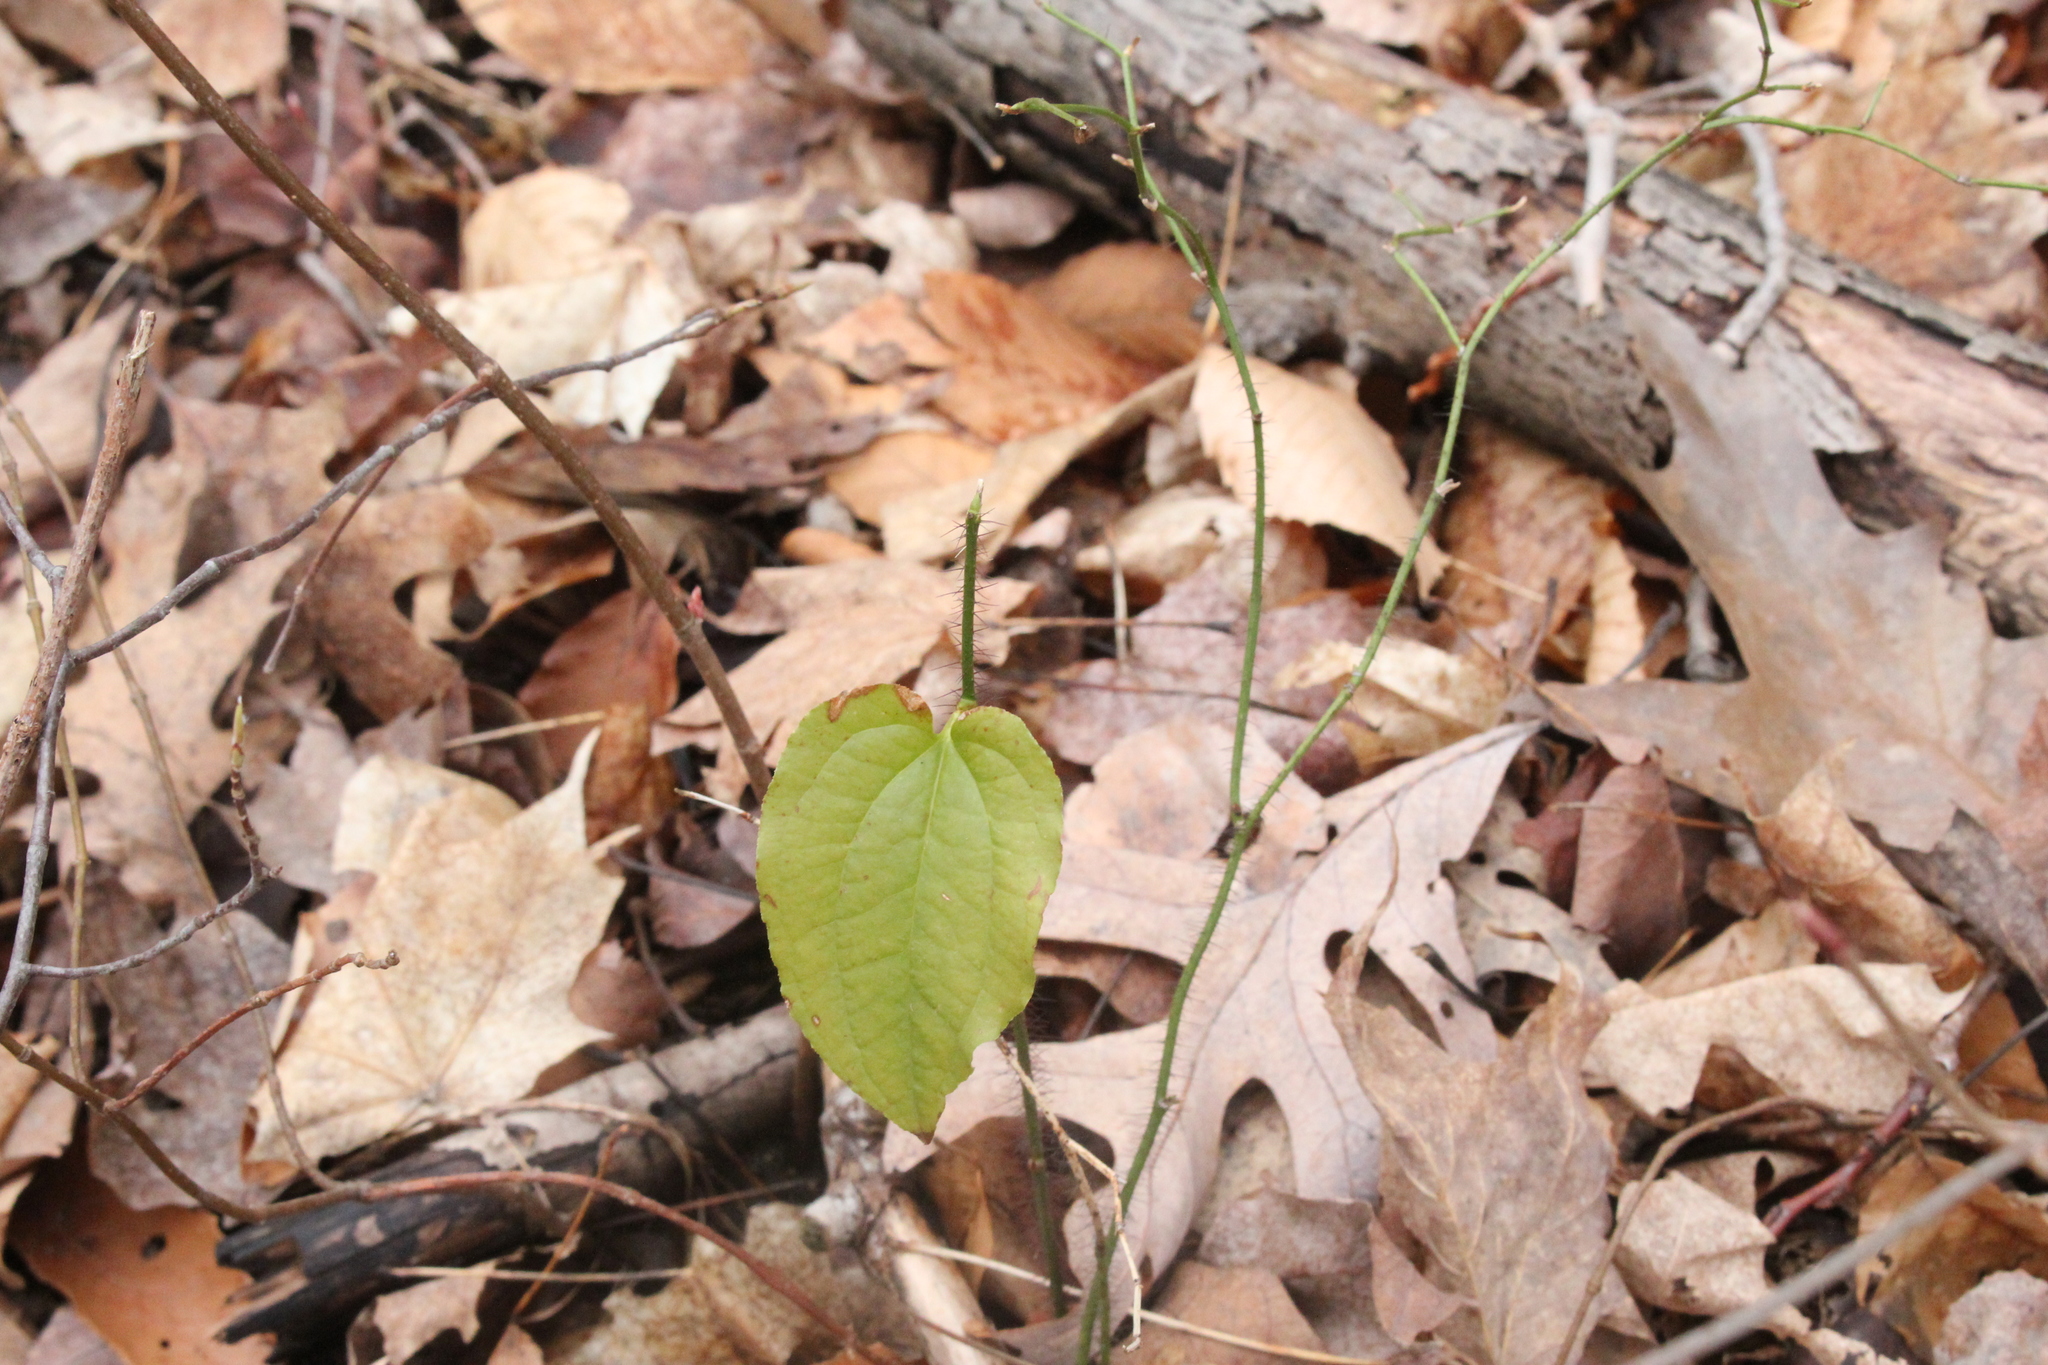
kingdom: Plantae
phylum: Tracheophyta
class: Liliopsida
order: Liliales
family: Smilacaceae
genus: Smilax
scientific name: Smilax tamnoides
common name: Hellfetter
